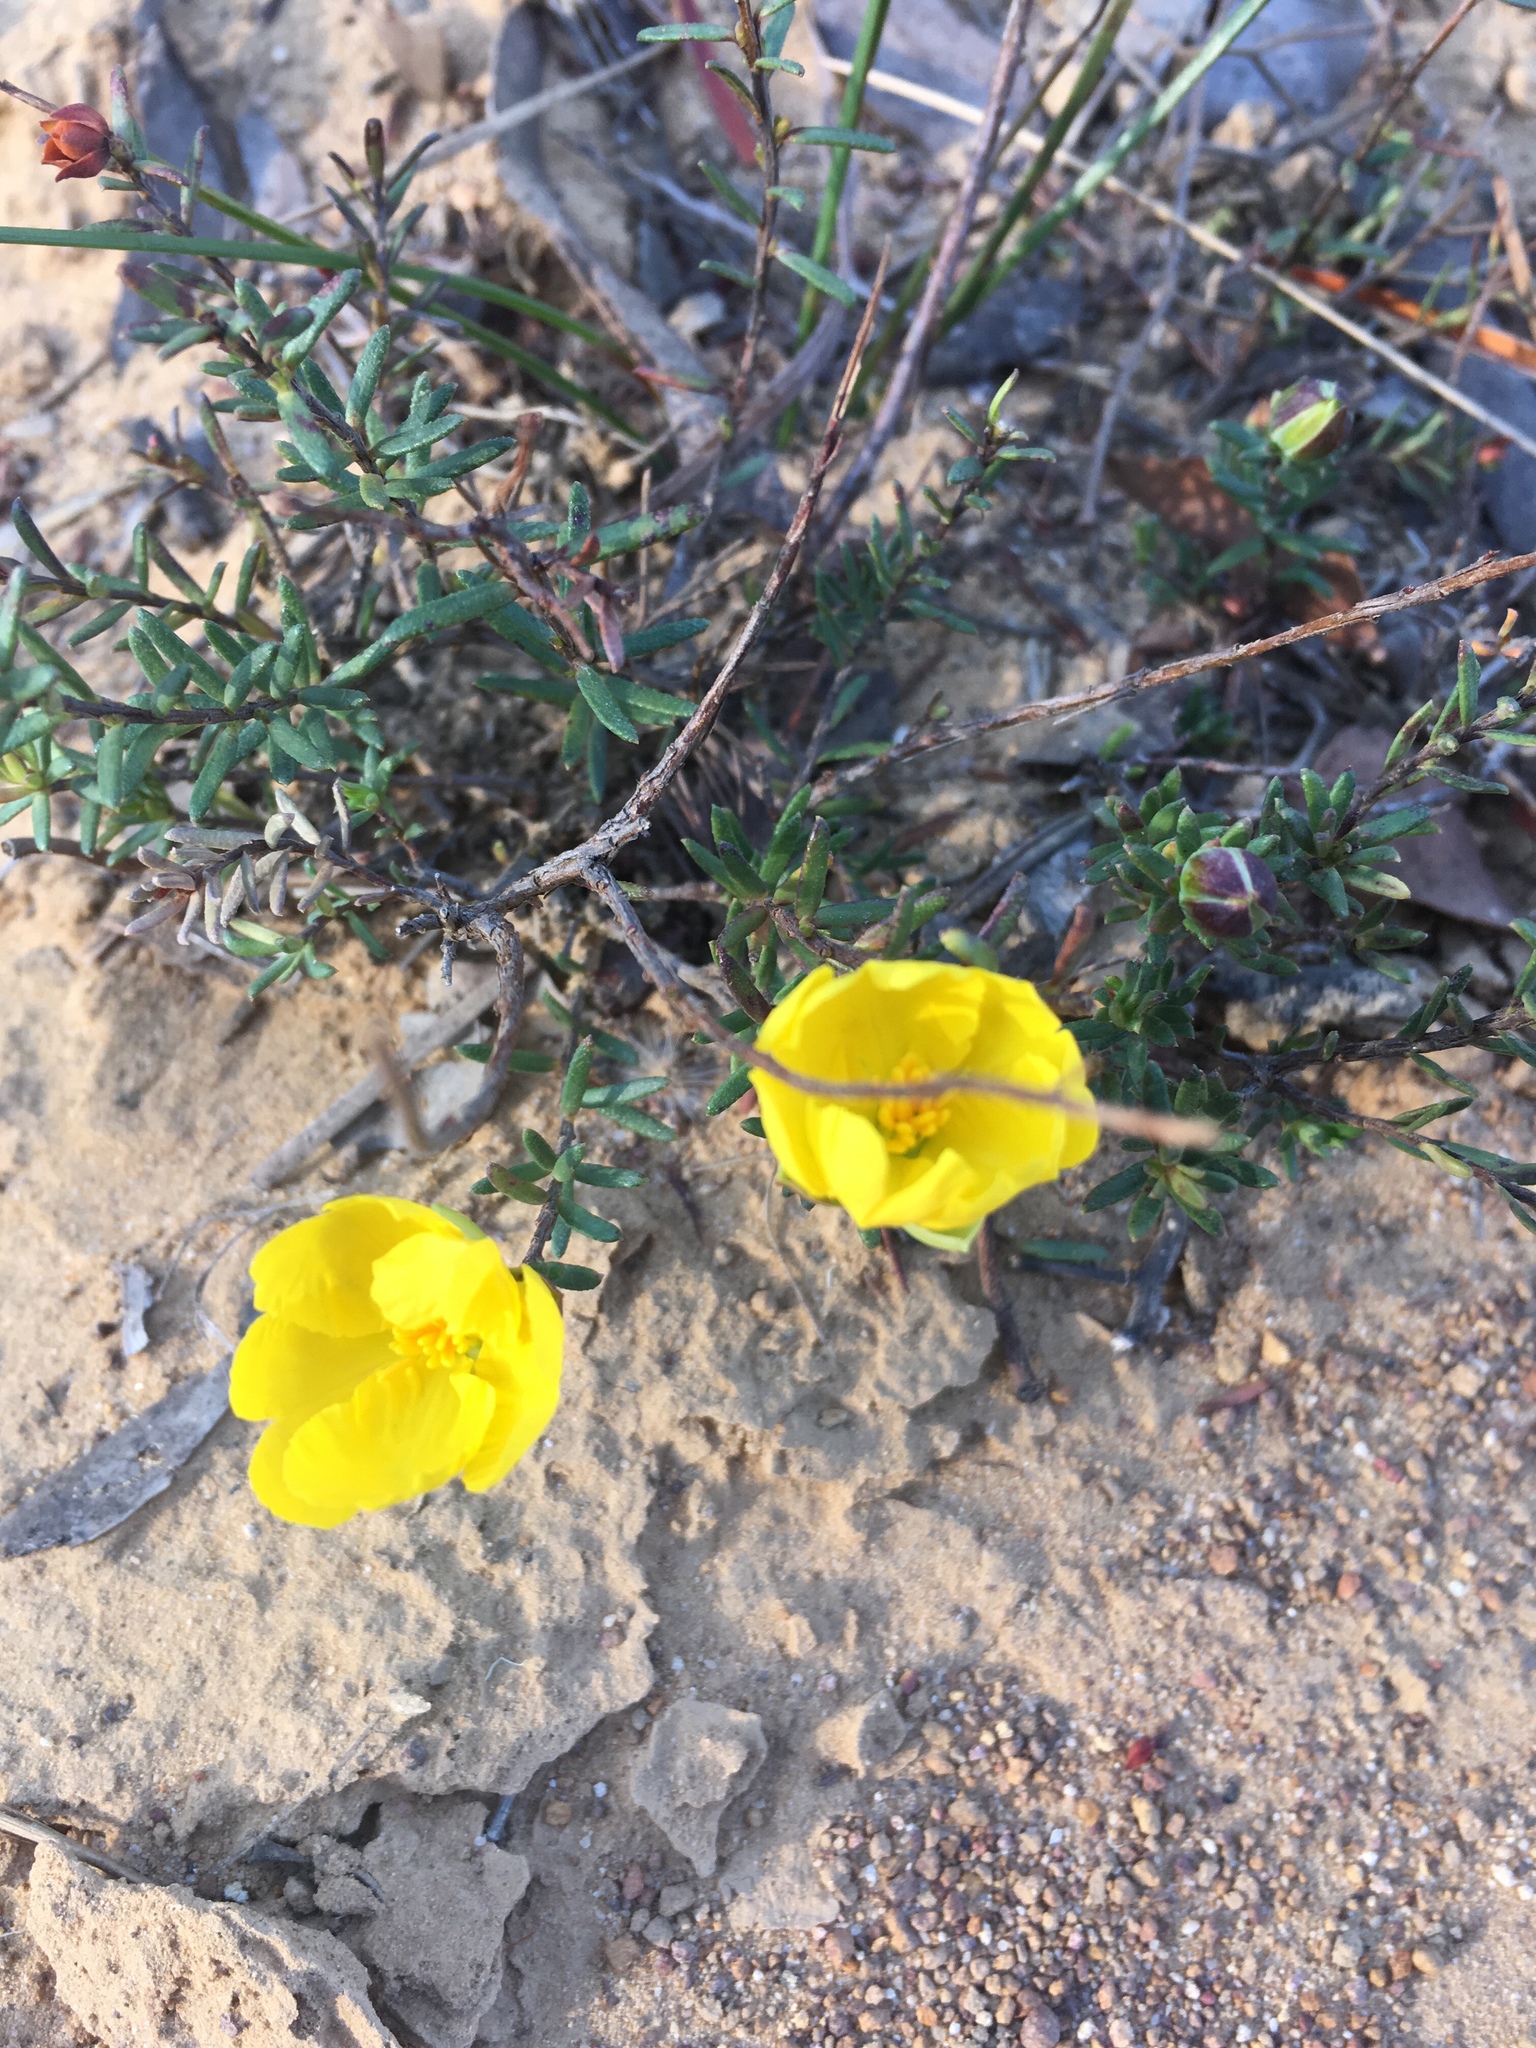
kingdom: Plantae
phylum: Tracheophyta
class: Magnoliopsida
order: Dilleniales
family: Dilleniaceae
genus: Hibbertia
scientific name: Hibbertia ericifolia
